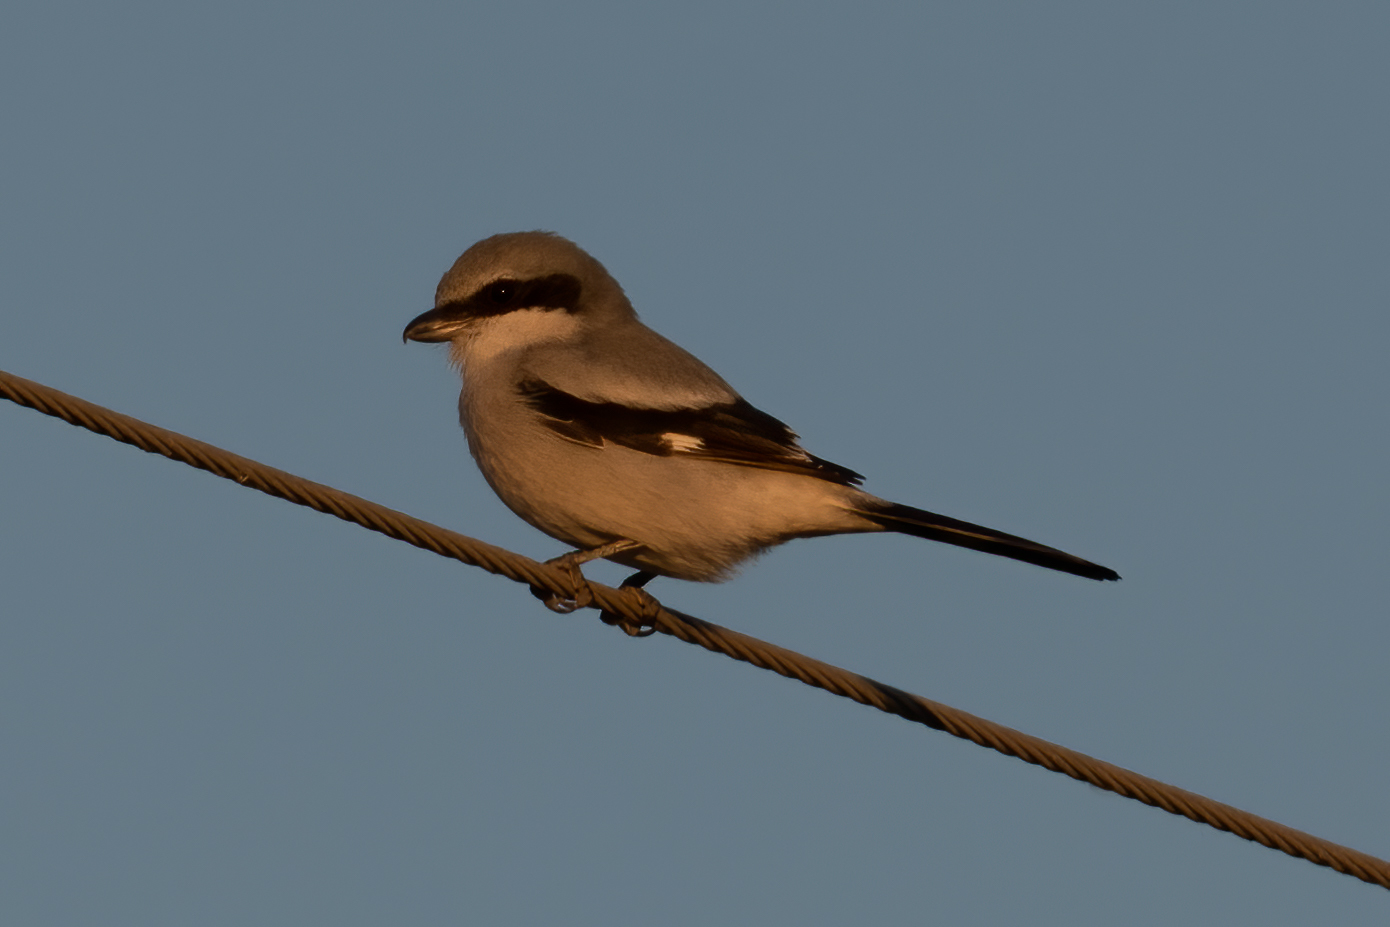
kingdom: Animalia
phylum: Chordata
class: Aves
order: Passeriformes
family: Laniidae
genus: Lanius
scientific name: Lanius ludovicianus
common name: Loggerhead shrike
